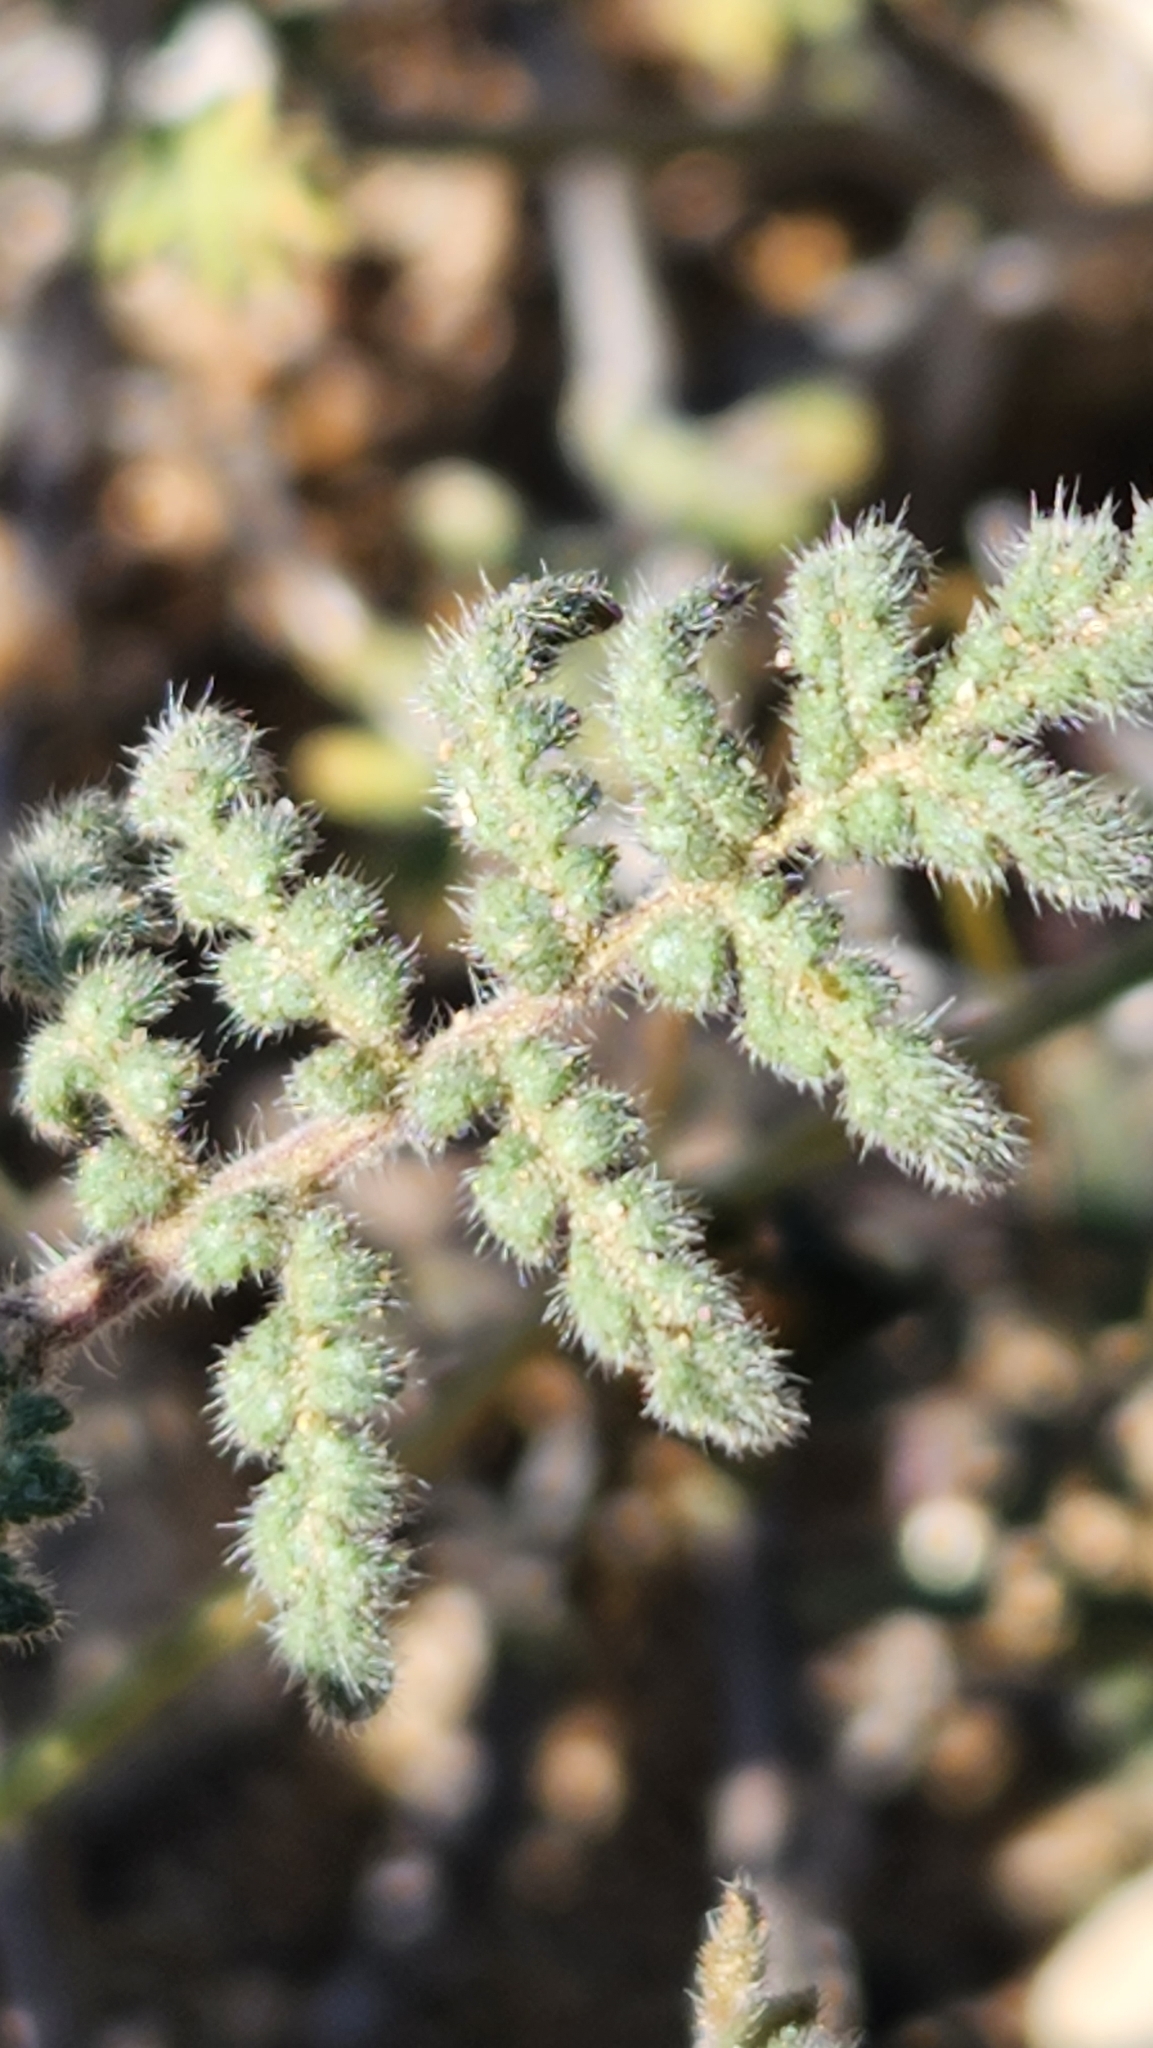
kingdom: Plantae
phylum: Tracheophyta
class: Magnoliopsida
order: Boraginales
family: Hydrophyllaceae
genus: Phacelia
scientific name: Phacelia distans
